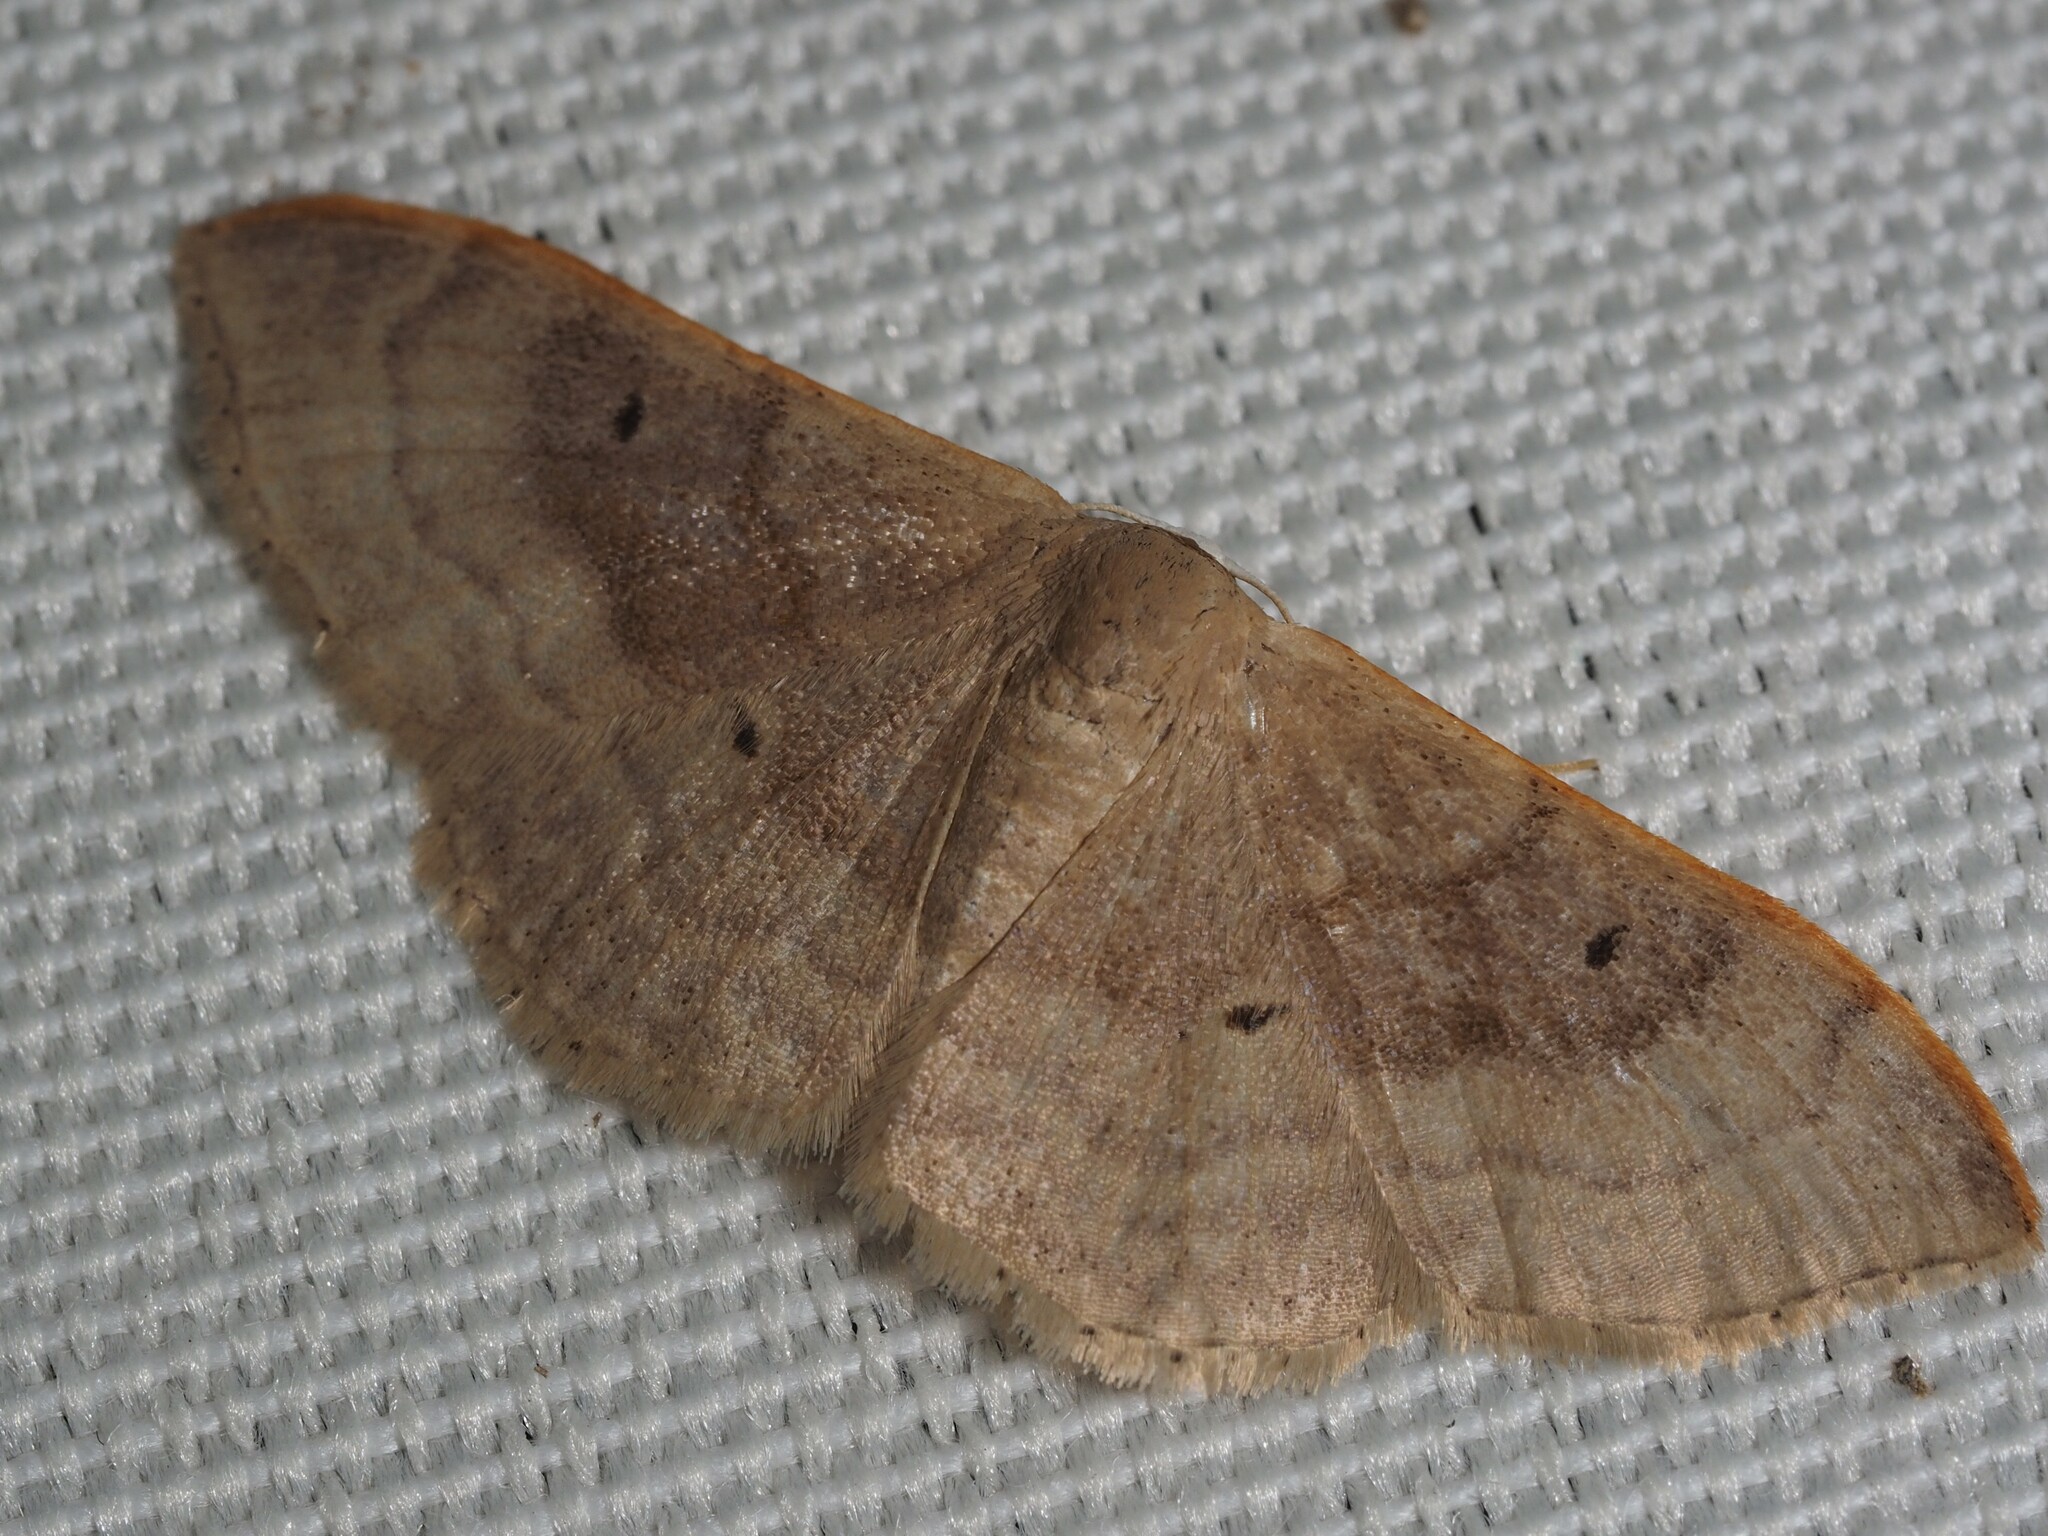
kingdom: Animalia
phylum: Arthropoda
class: Insecta
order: Lepidoptera
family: Geometridae
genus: Idaea
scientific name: Idaea degeneraria
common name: Portland ribbon wave
